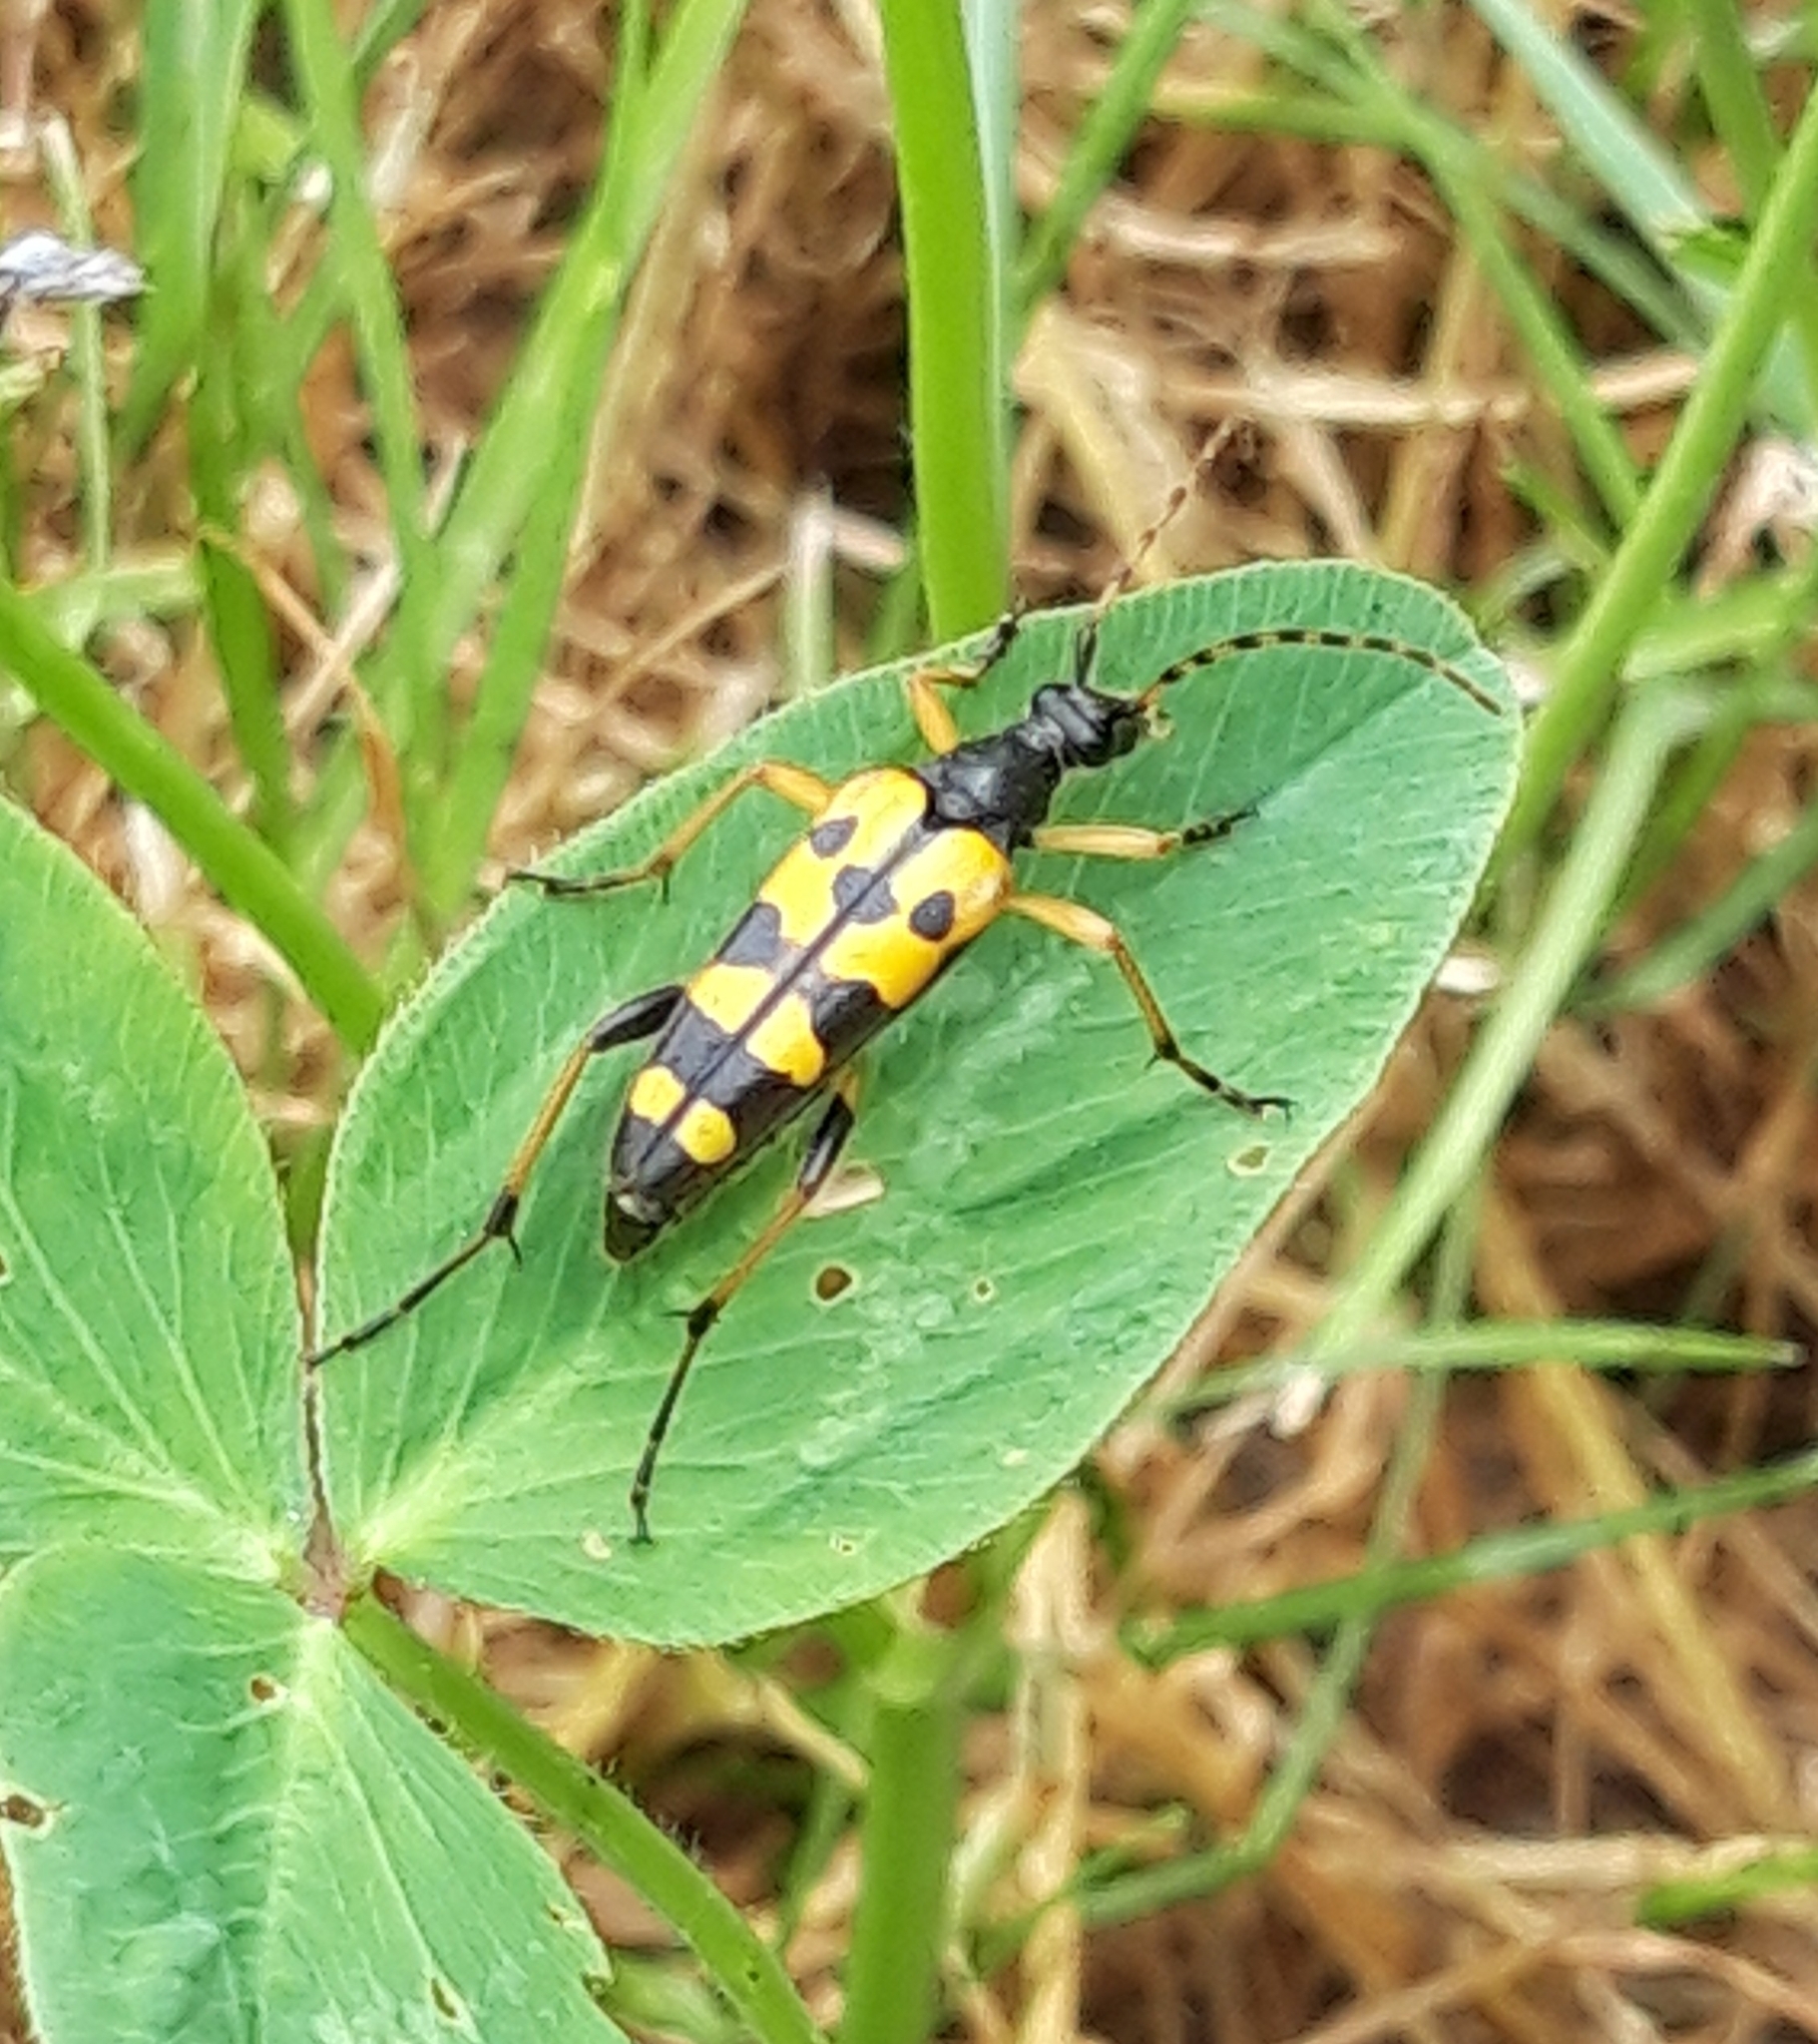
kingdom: Animalia
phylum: Arthropoda
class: Insecta
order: Coleoptera
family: Cerambycidae
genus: Rutpela
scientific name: Rutpela maculata
